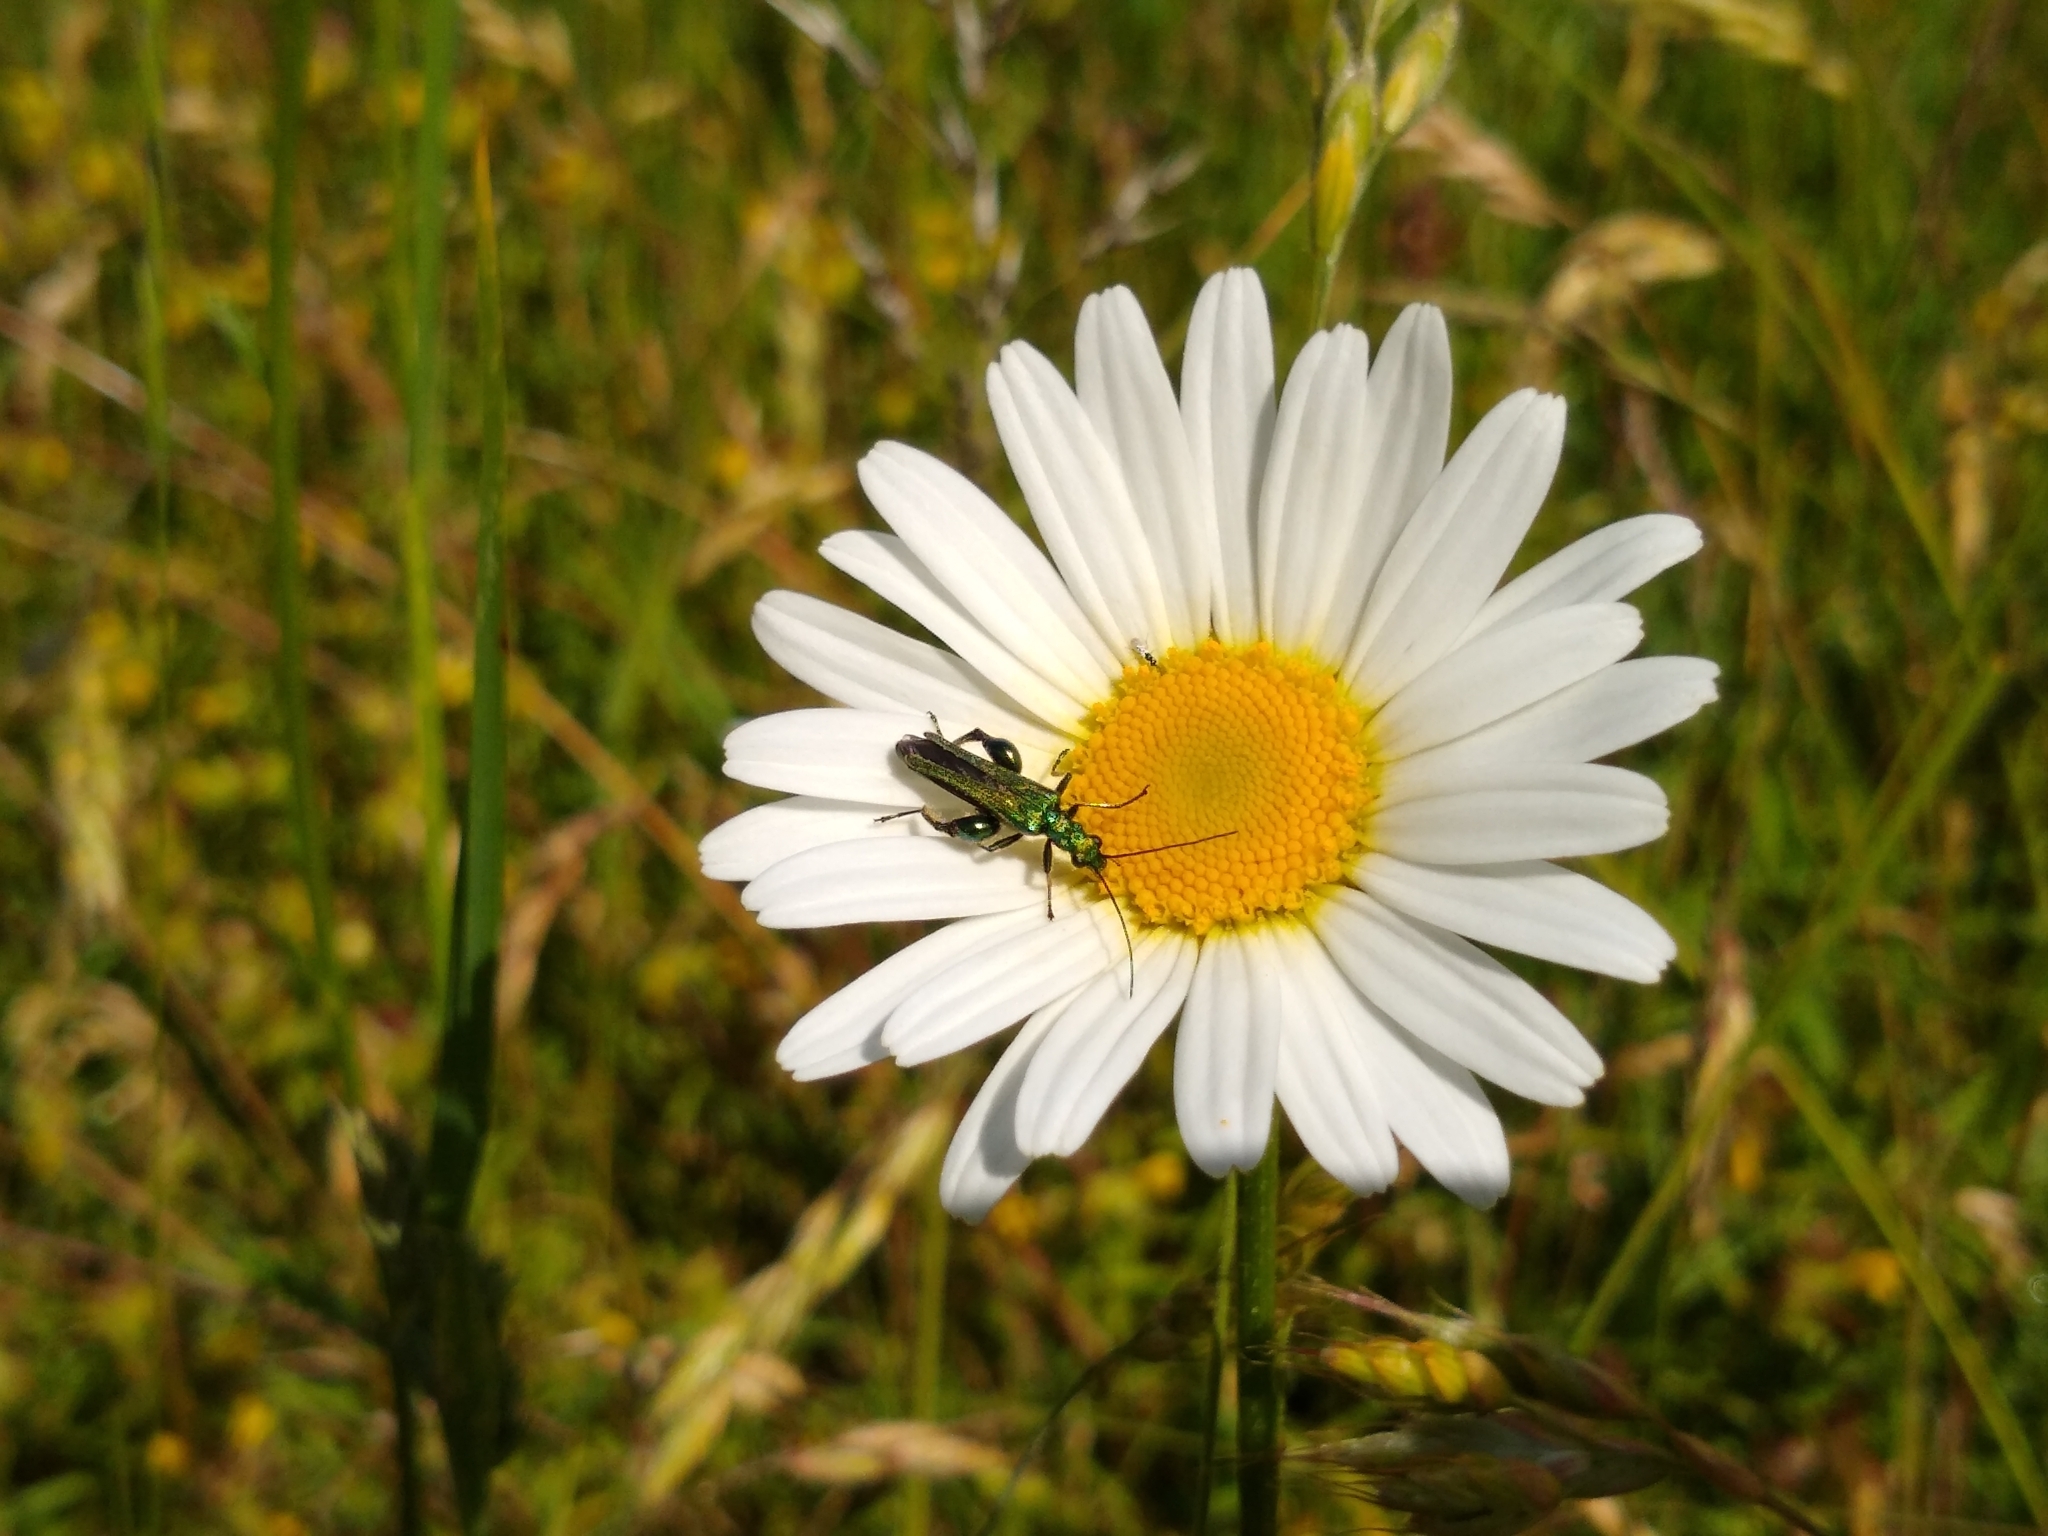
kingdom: Animalia
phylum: Arthropoda
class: Insecta
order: Coleoptera
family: Oedemeridae
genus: Oedemera
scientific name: Oedemera nobilis
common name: Swollen-thighed beetle
